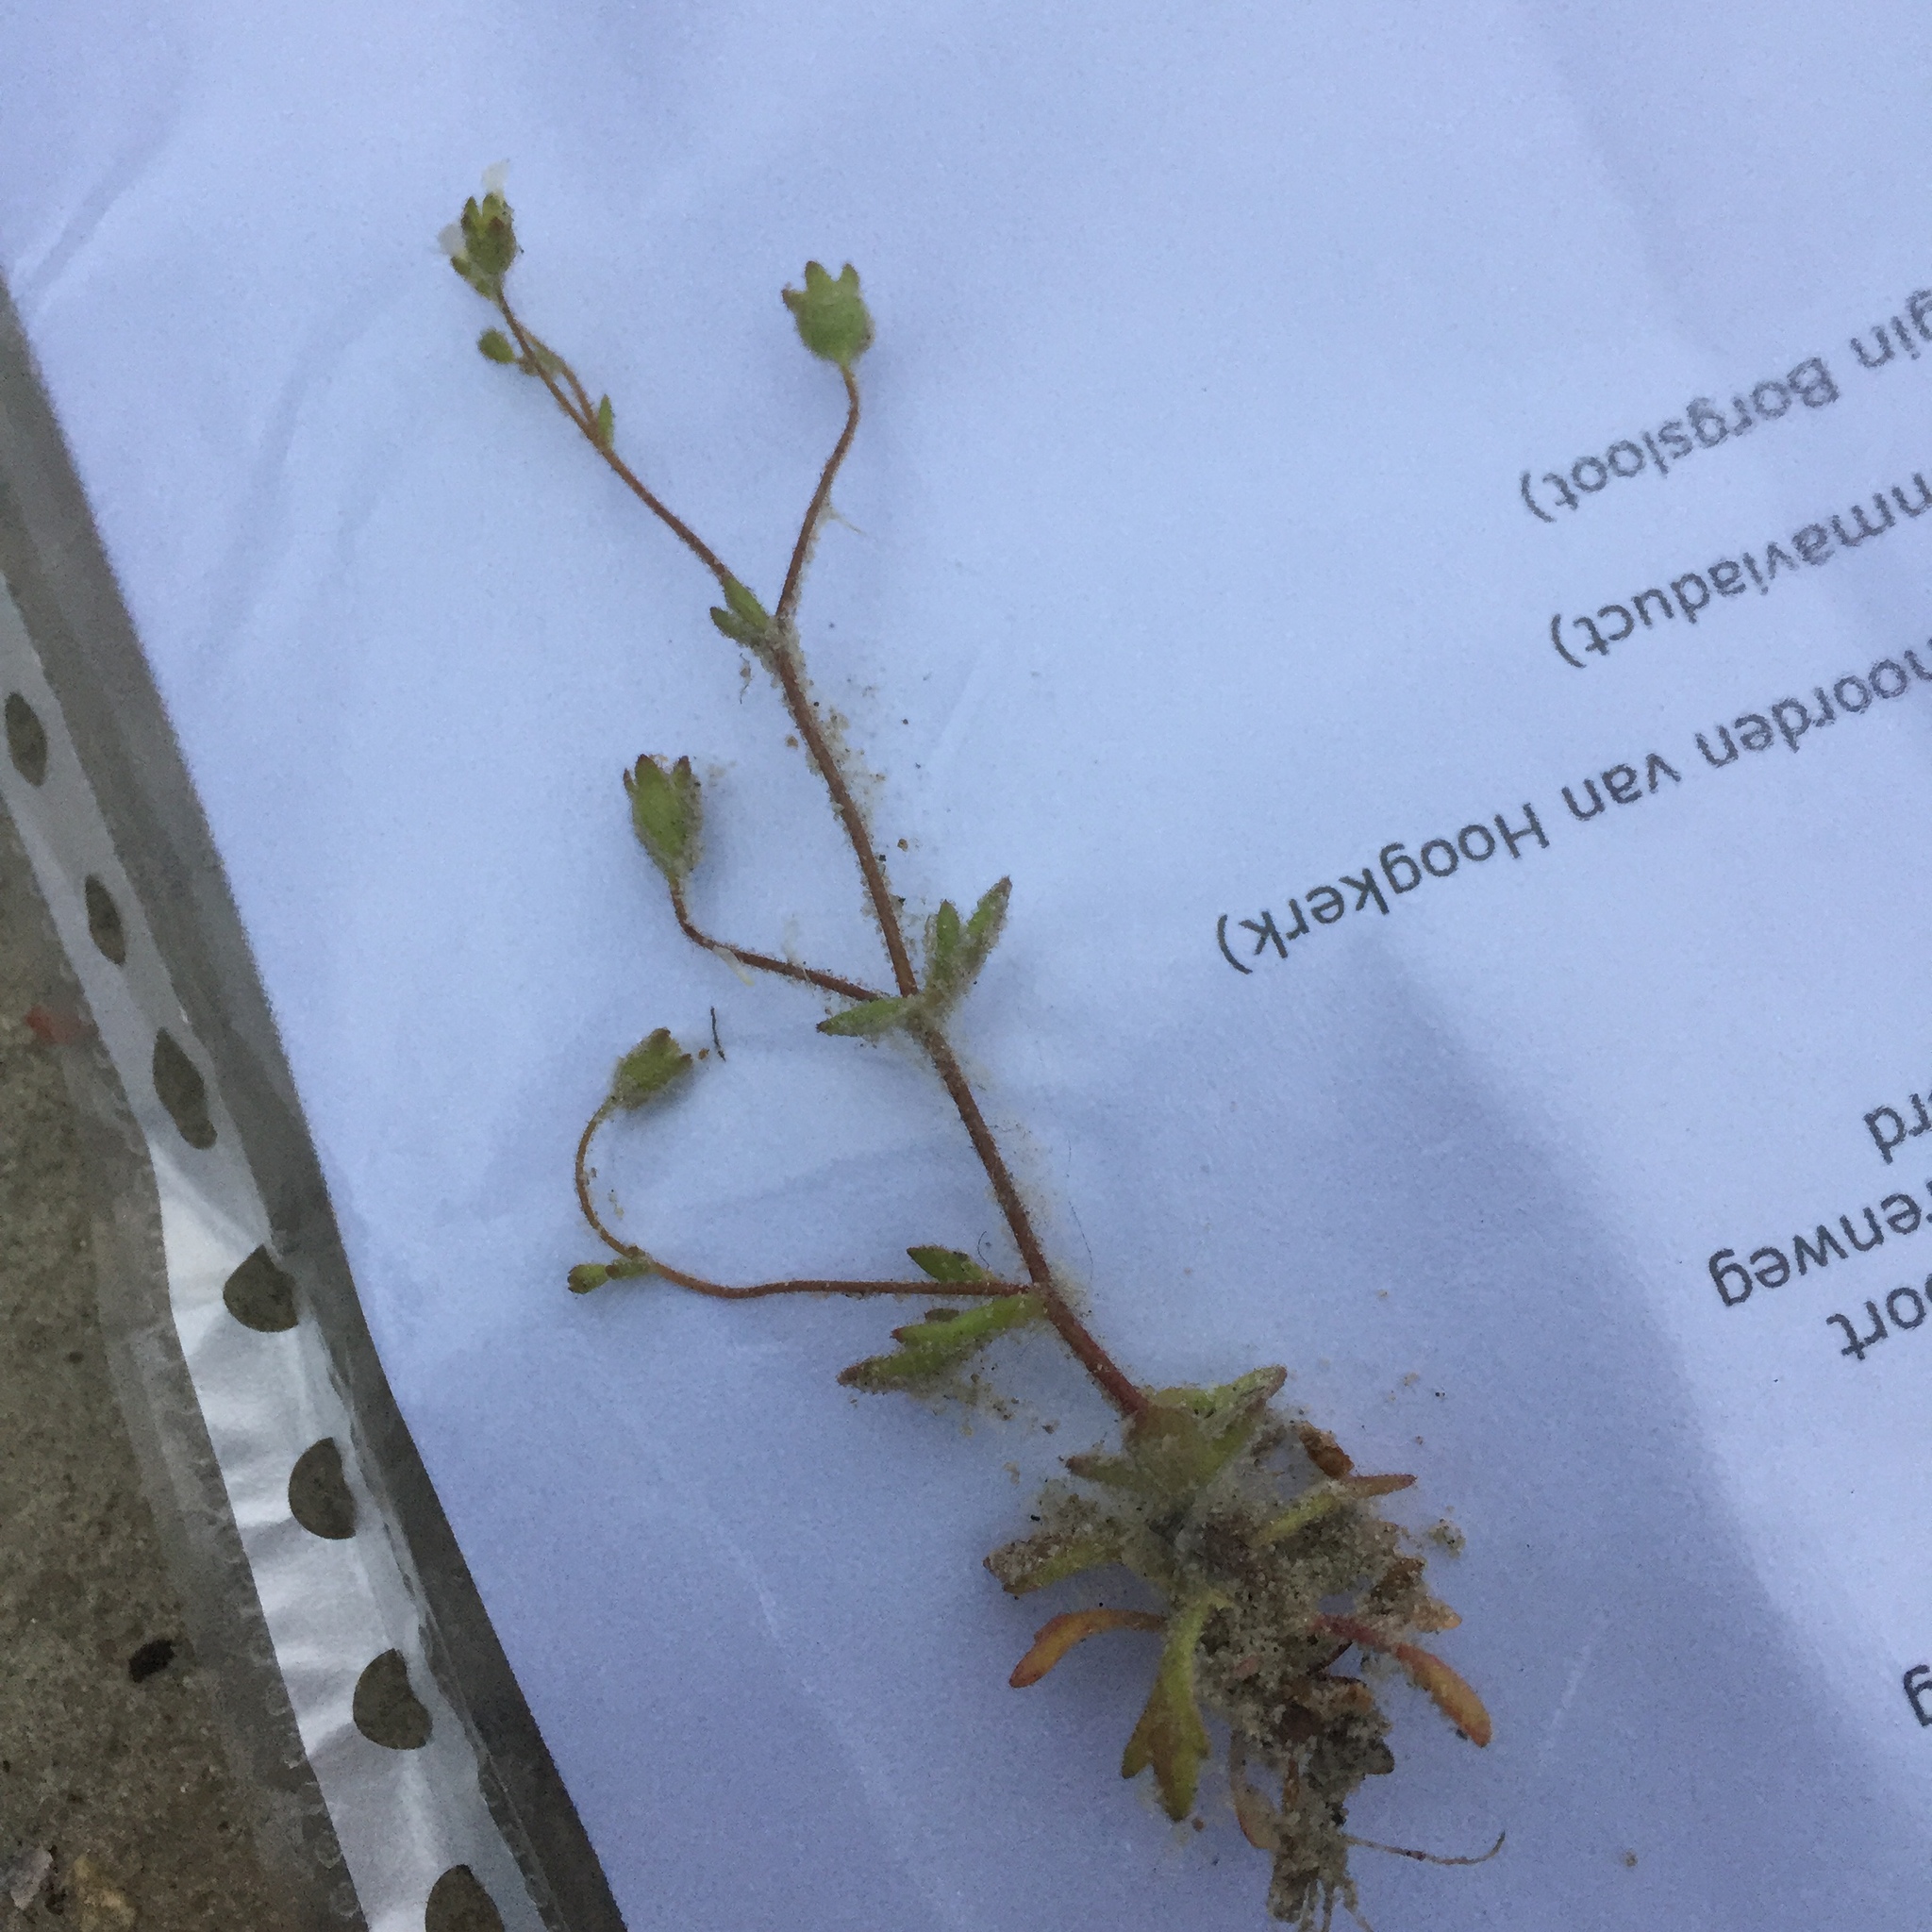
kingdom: Plantae
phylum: Tracheophyta
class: Magnoliopsida
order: Saxifragales
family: Saxifragaceae
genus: Saxifraga
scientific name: Saxifraga tridactylites
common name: Rue-leaved saxifrage
